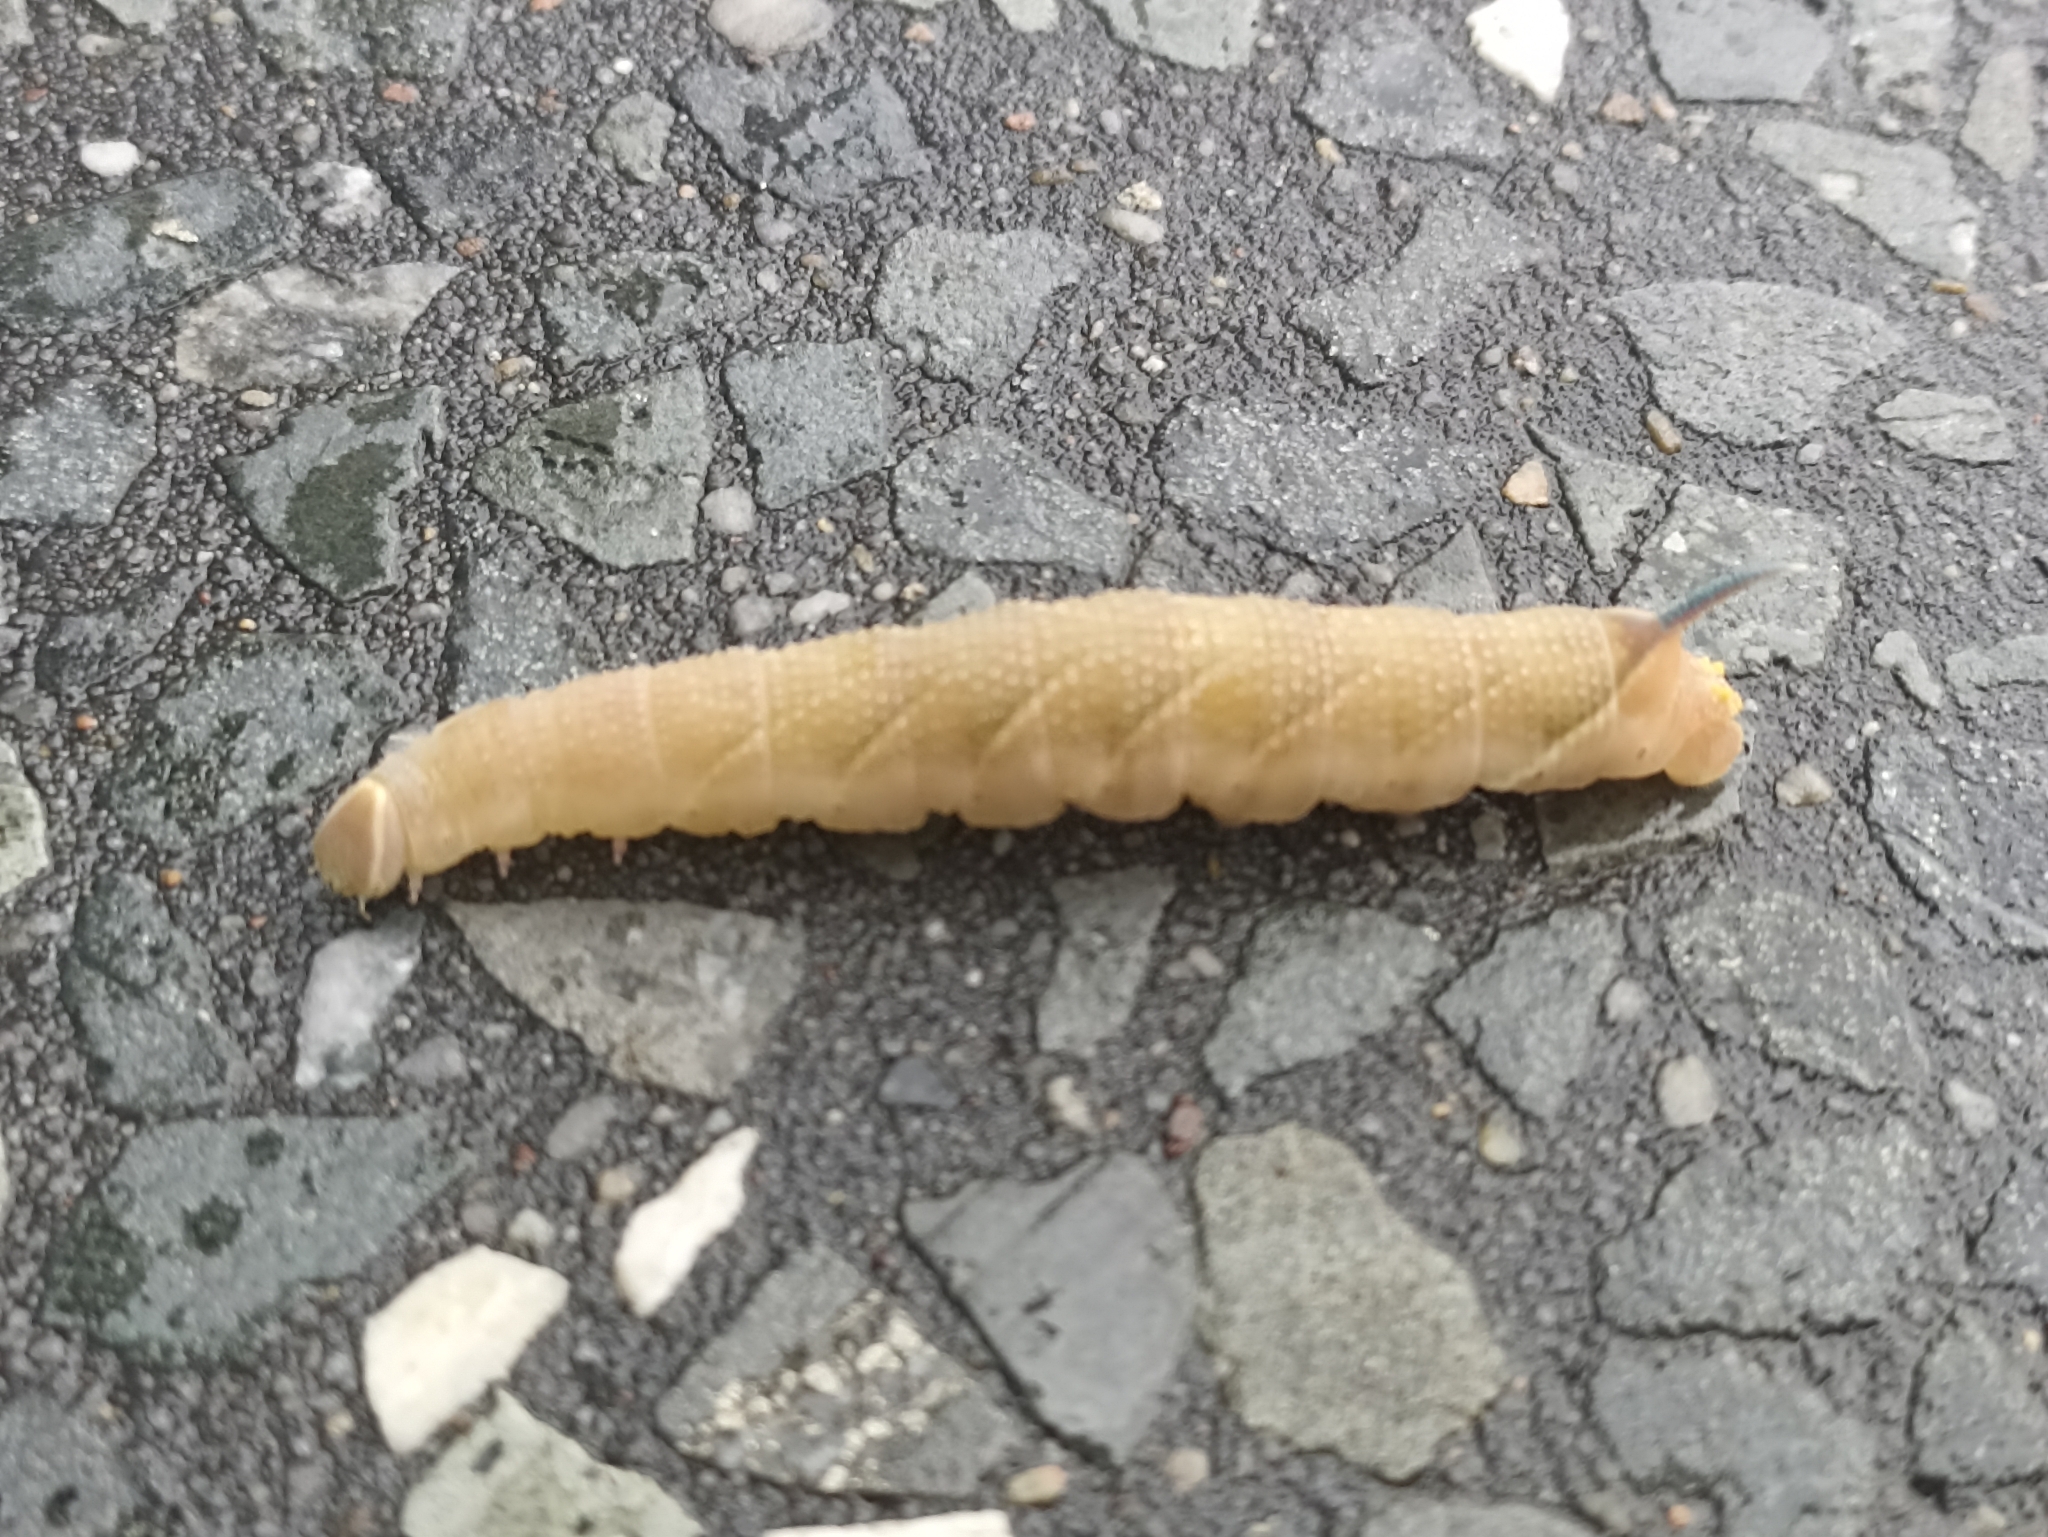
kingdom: Animalia
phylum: Arthropoda
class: Insecta
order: Lepidoptera
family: Sphingidae
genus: Mimas
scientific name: Mimas tiliae
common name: Lime hawk-moth
